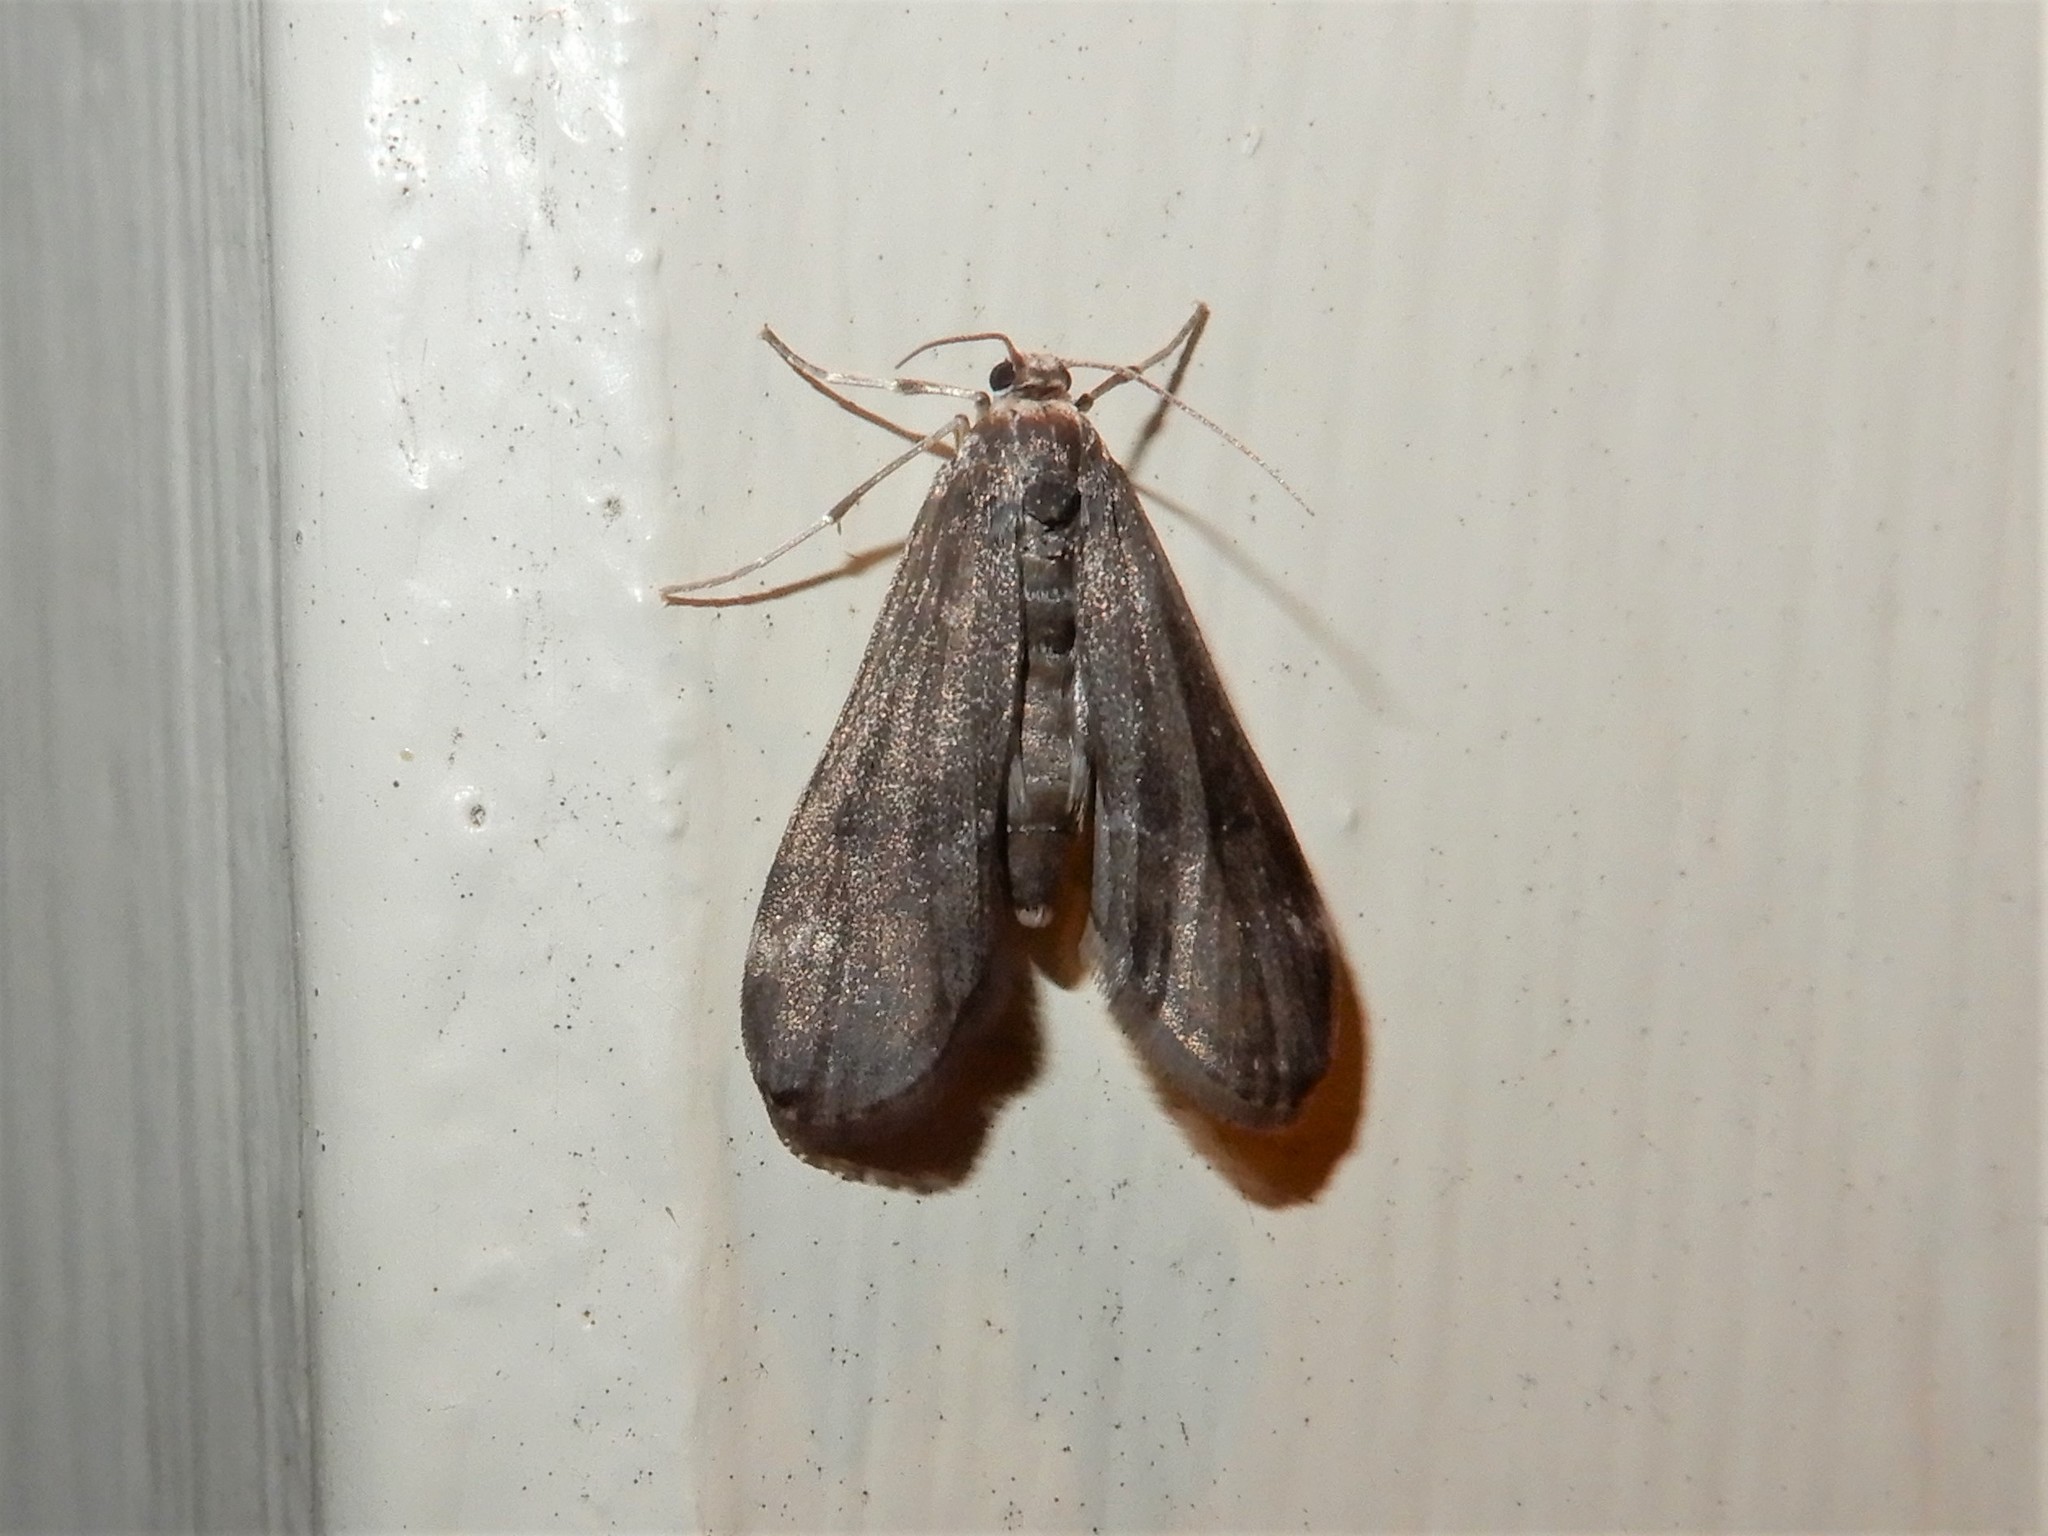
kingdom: Animalia
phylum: Arthropoda
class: Insecta
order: Lepidoptera
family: Crambidae
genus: Hygraula
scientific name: Hygraula nitens
